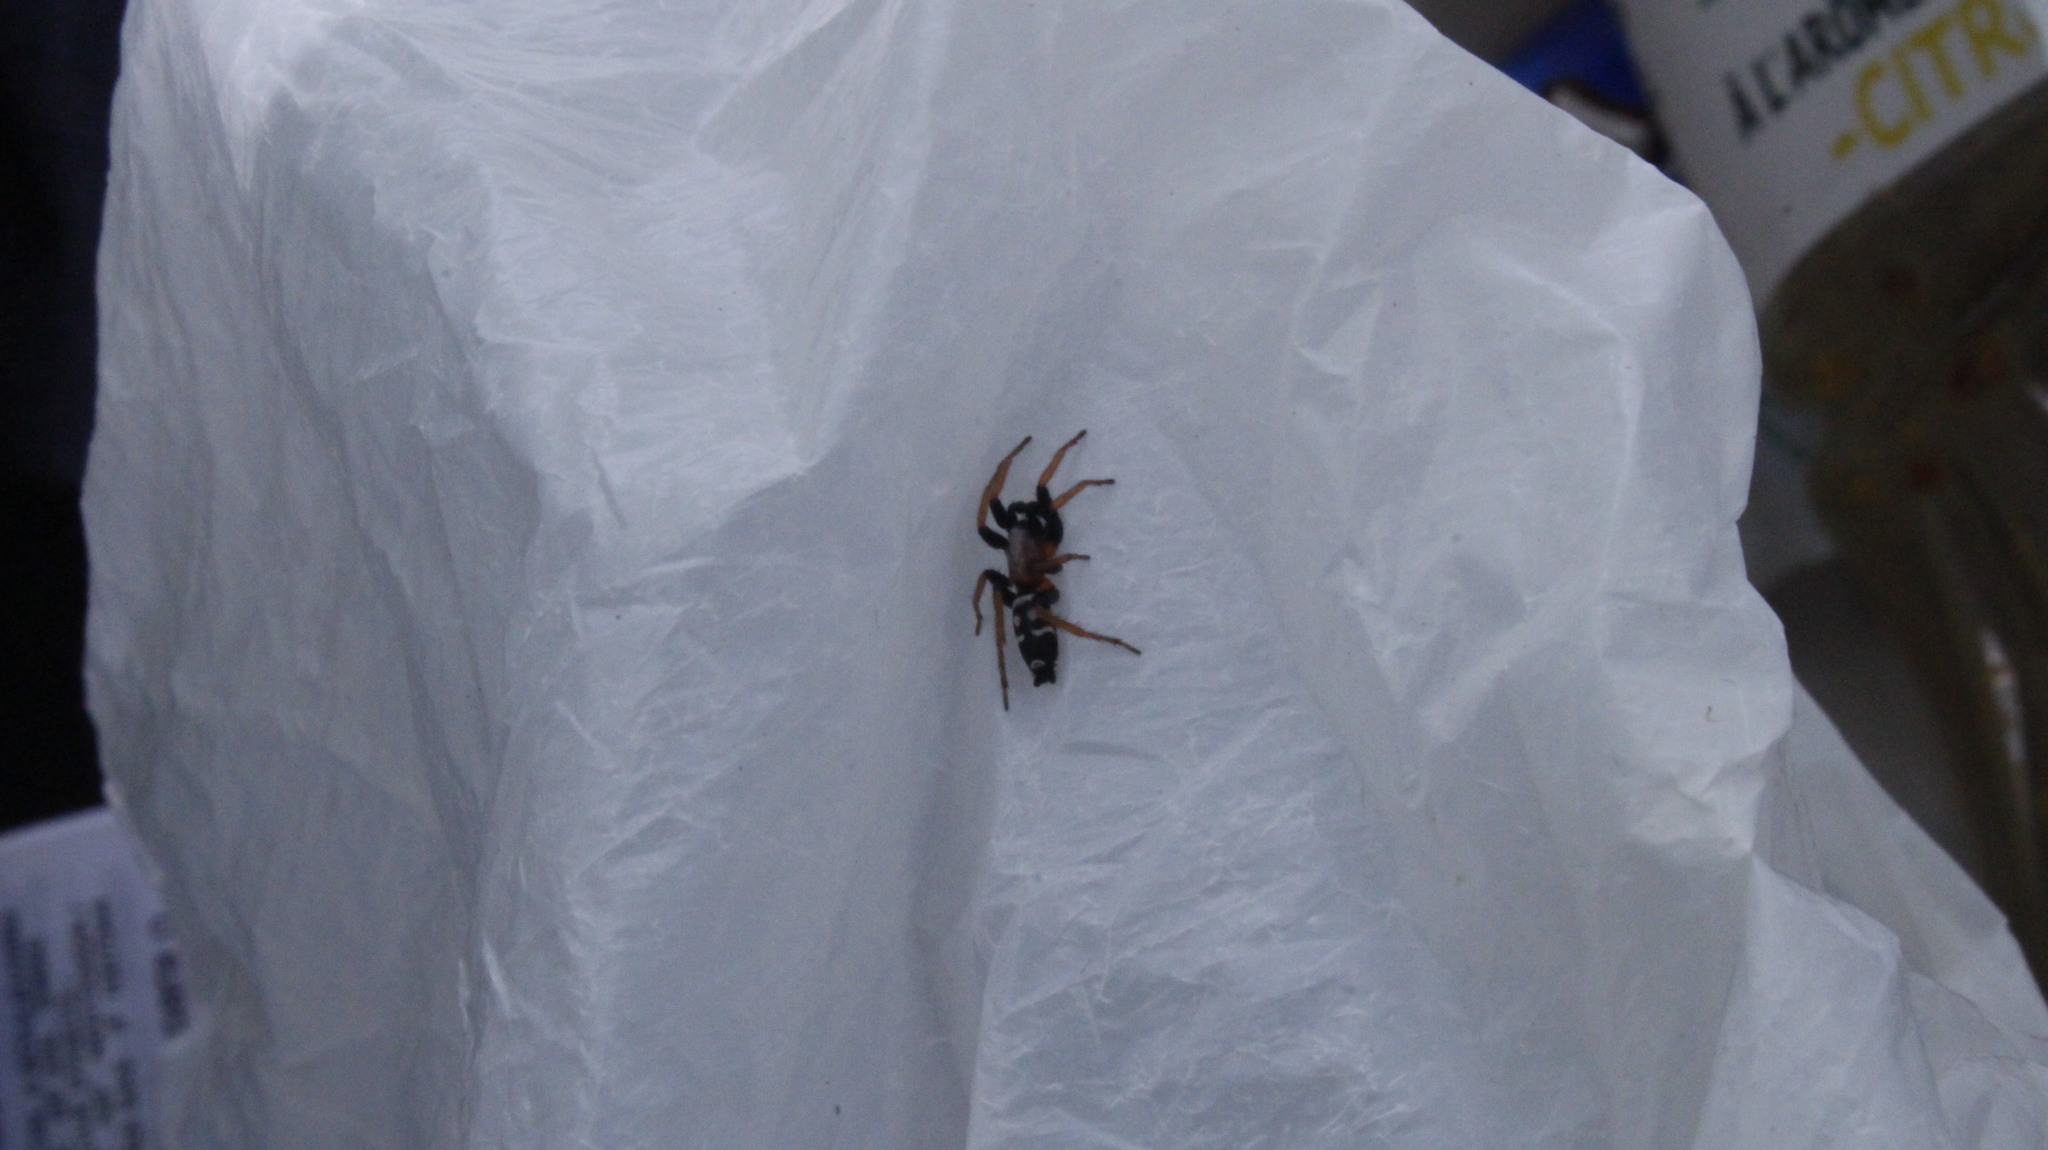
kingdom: Animalia
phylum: Arthropoda
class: Arachnida
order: Araneae
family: Gnaphosidae
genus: Poecilochroa
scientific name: Poecilochroa variana
